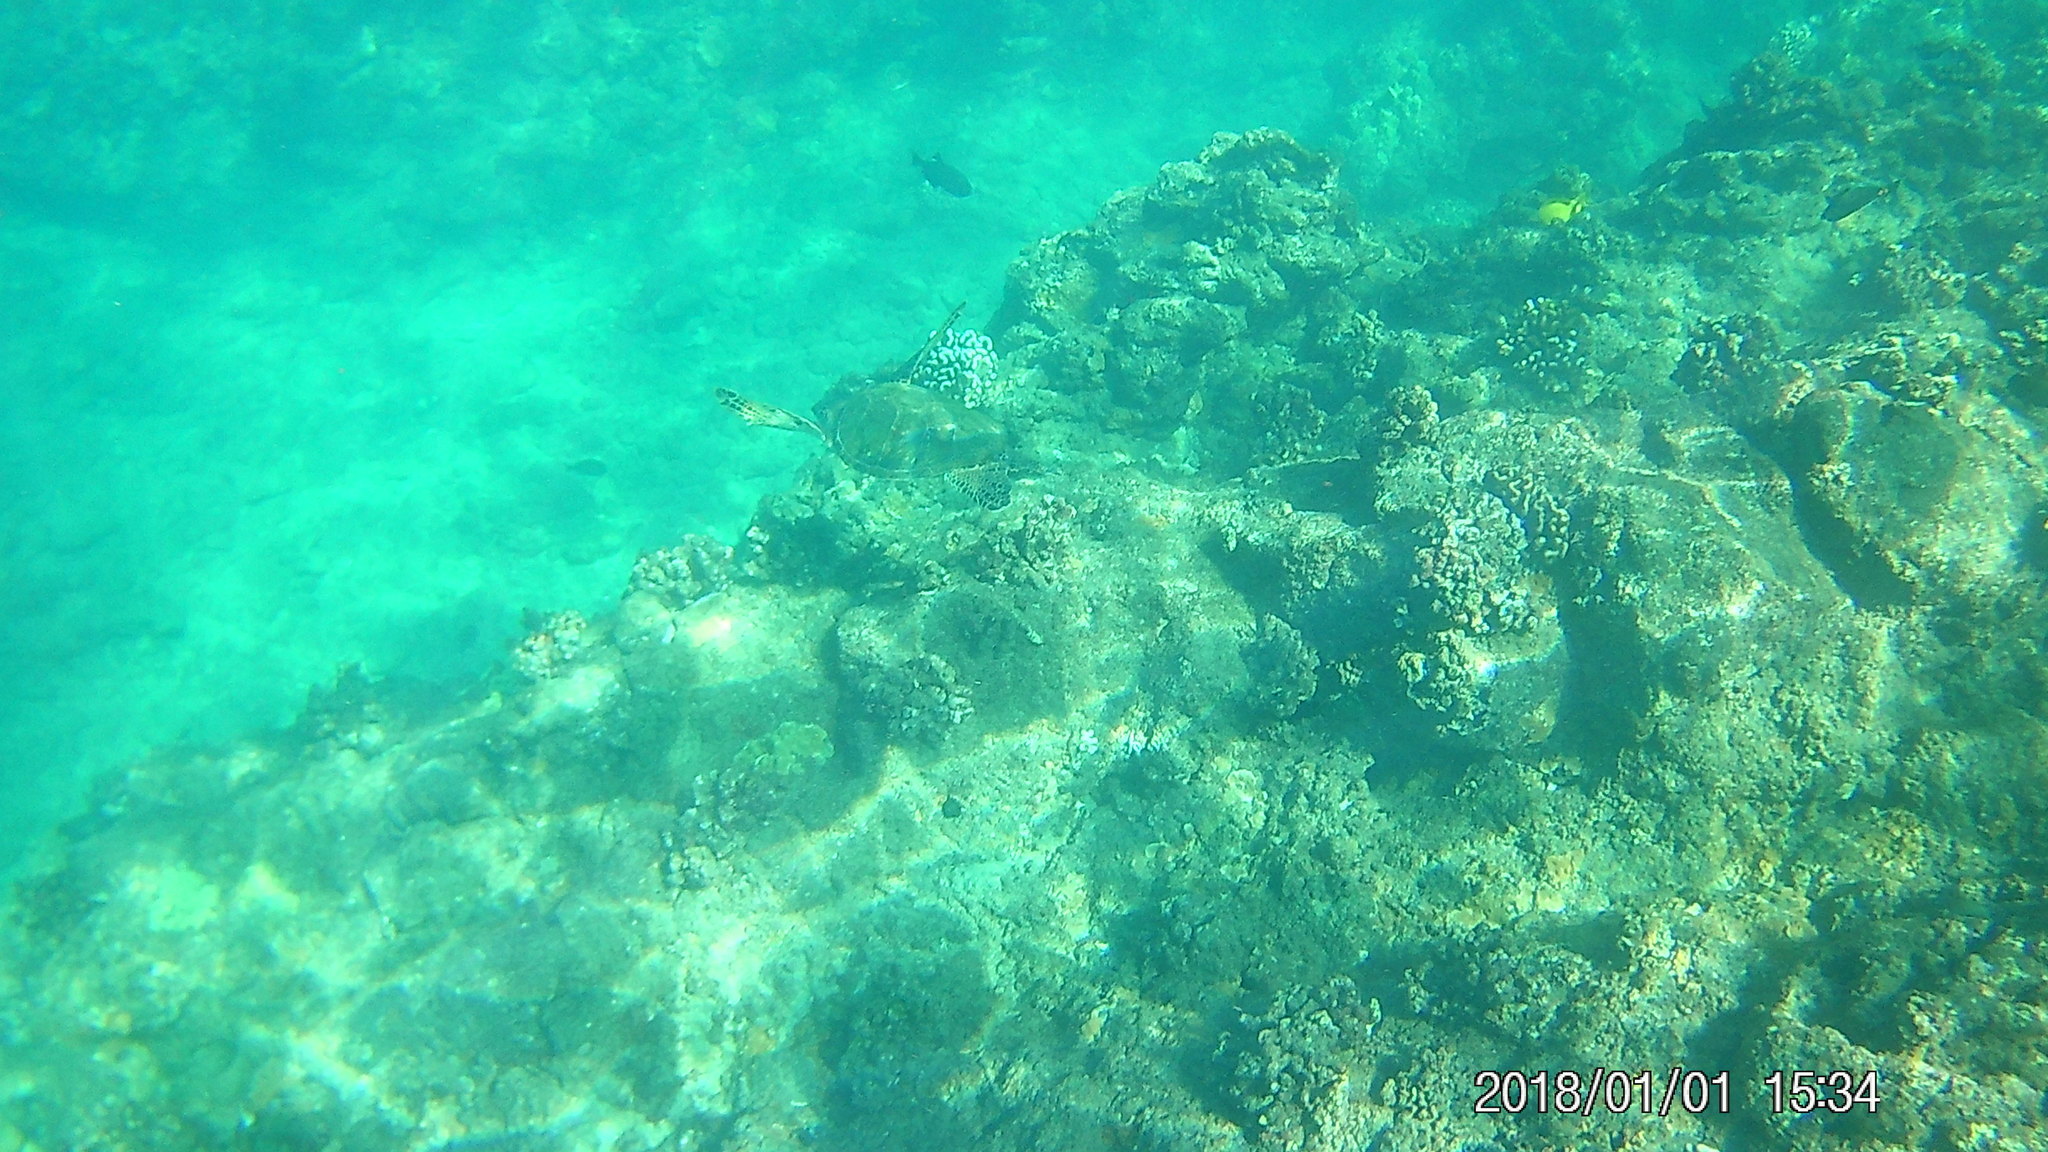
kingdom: Animalia
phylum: Chordata
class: Testudines
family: Cheloniidae
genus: Chelonia
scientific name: Chelonia mydas
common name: Green turtle
